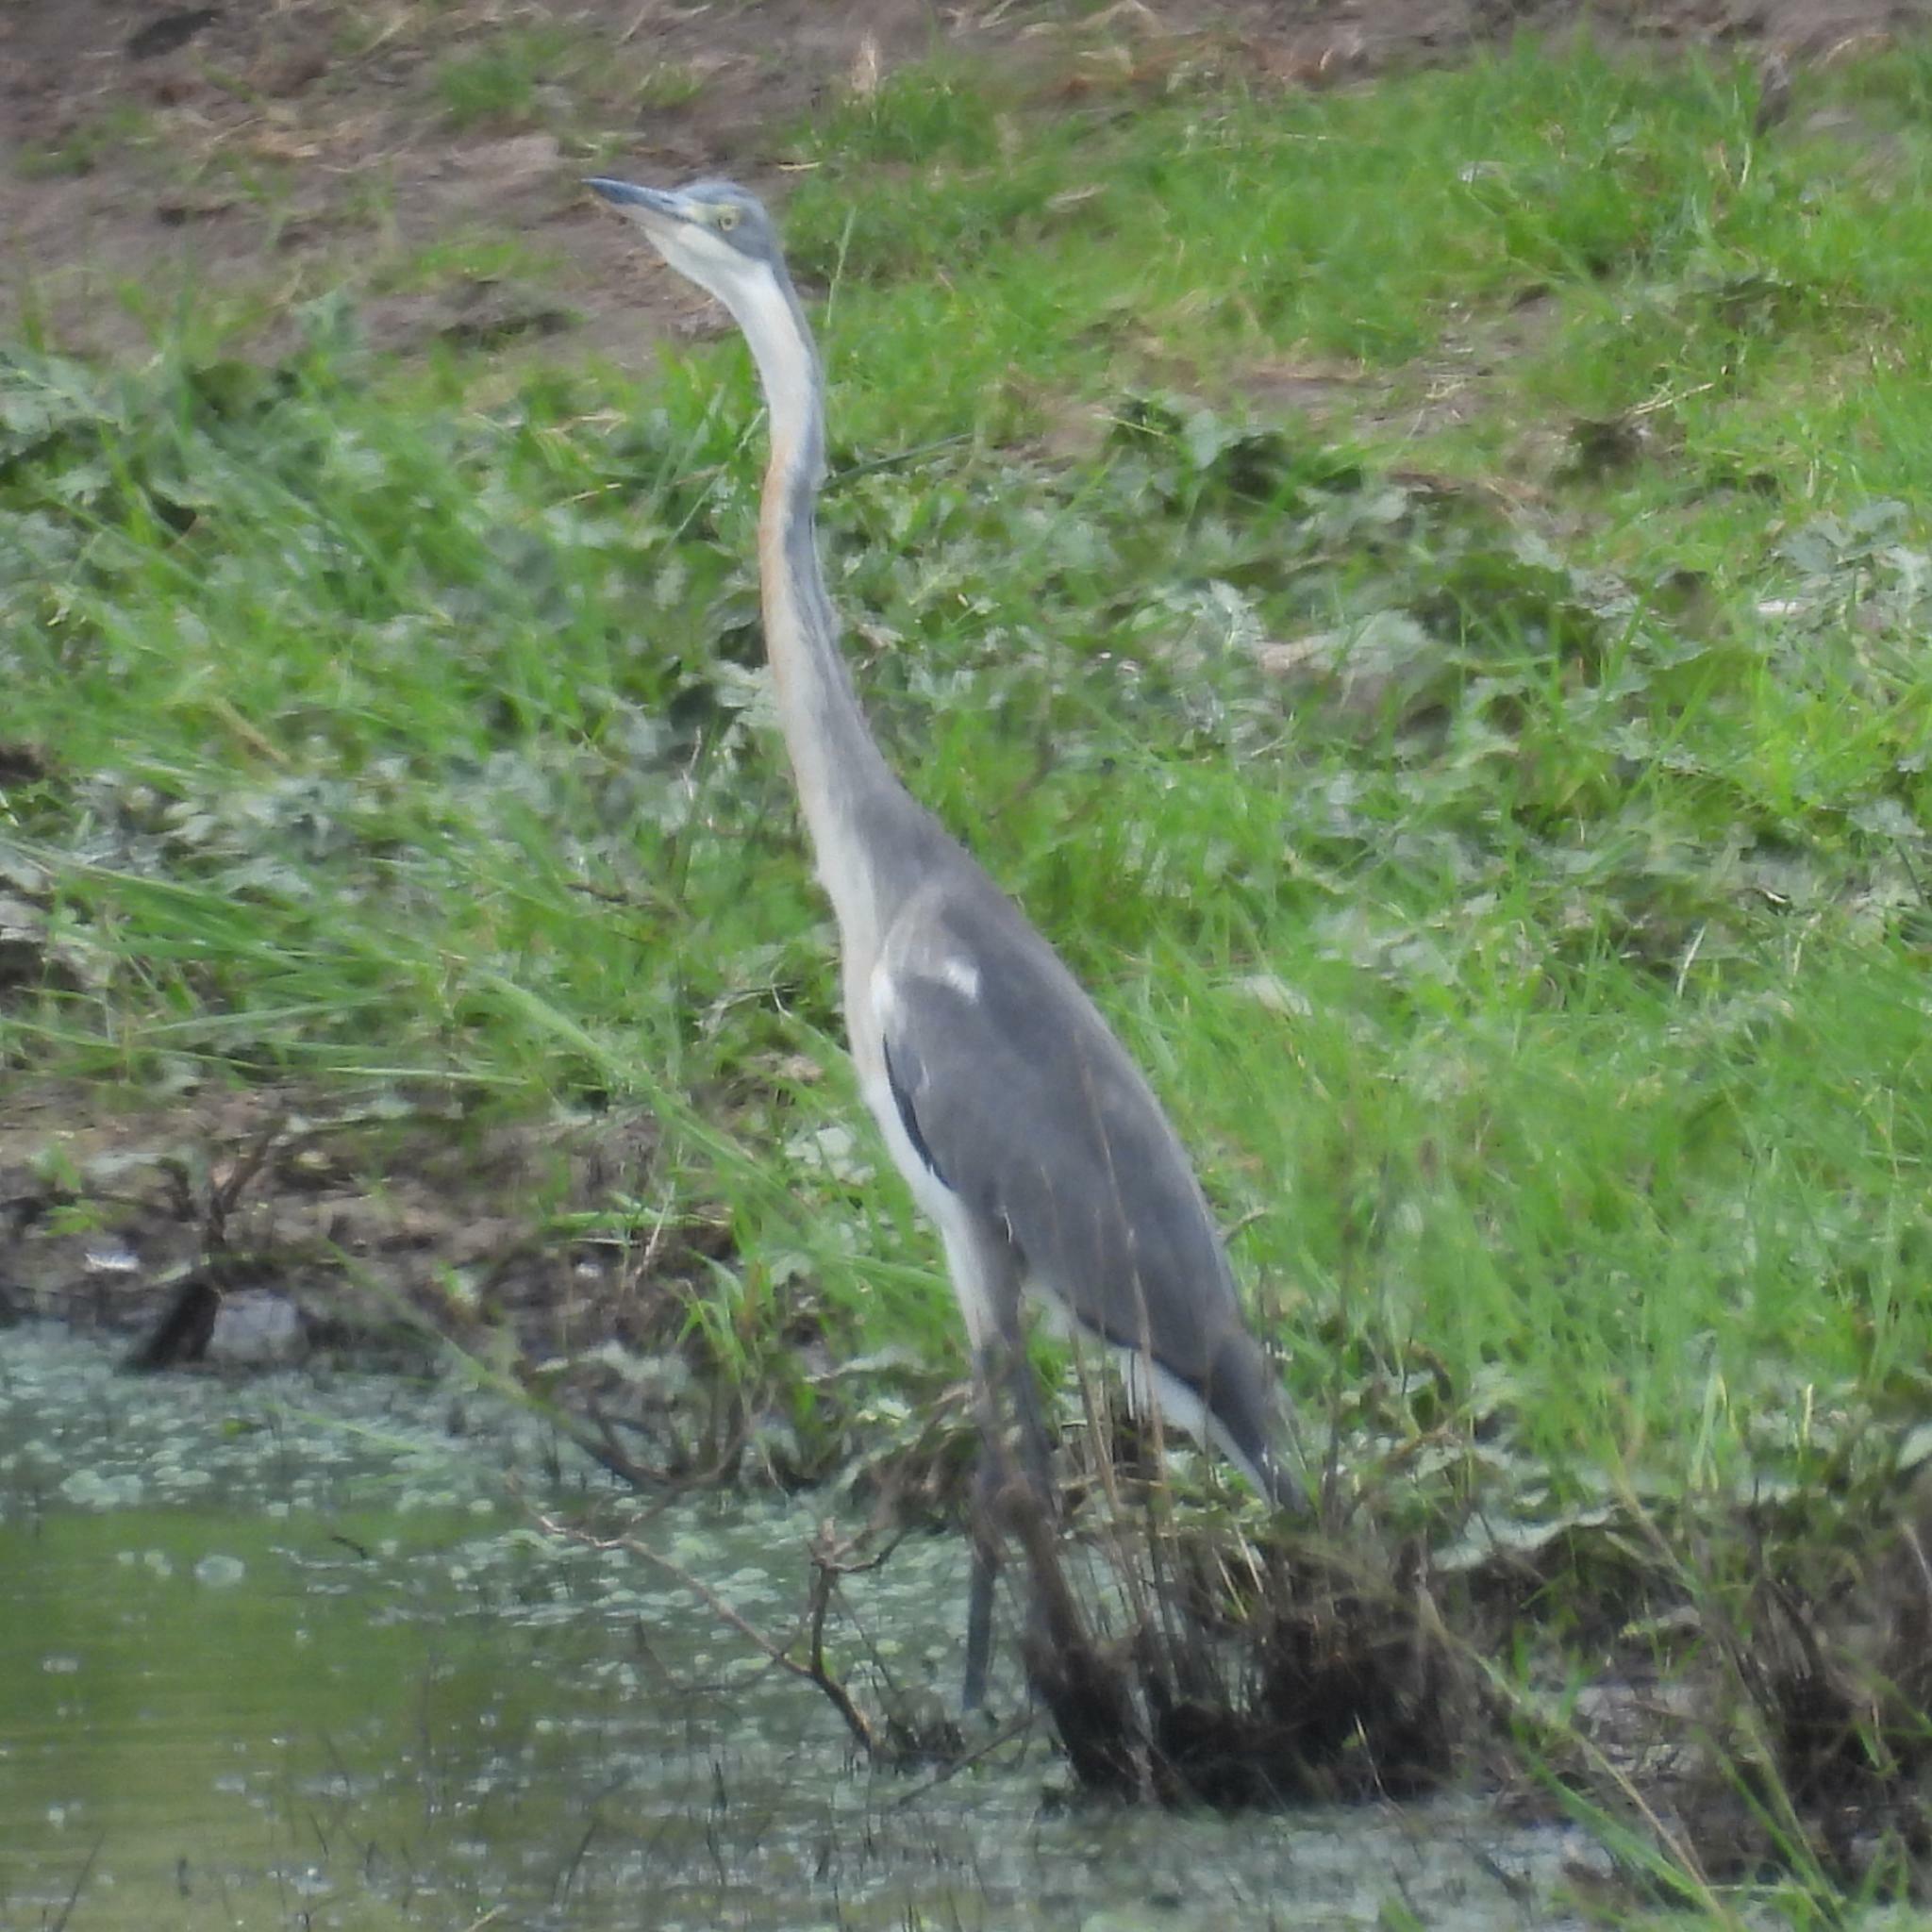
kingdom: Animalia
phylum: Chordata
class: Aves
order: Pelecaniformes
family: Ardeidae
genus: Ardea
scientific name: Ardea melanocephala
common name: Black-headed heron
